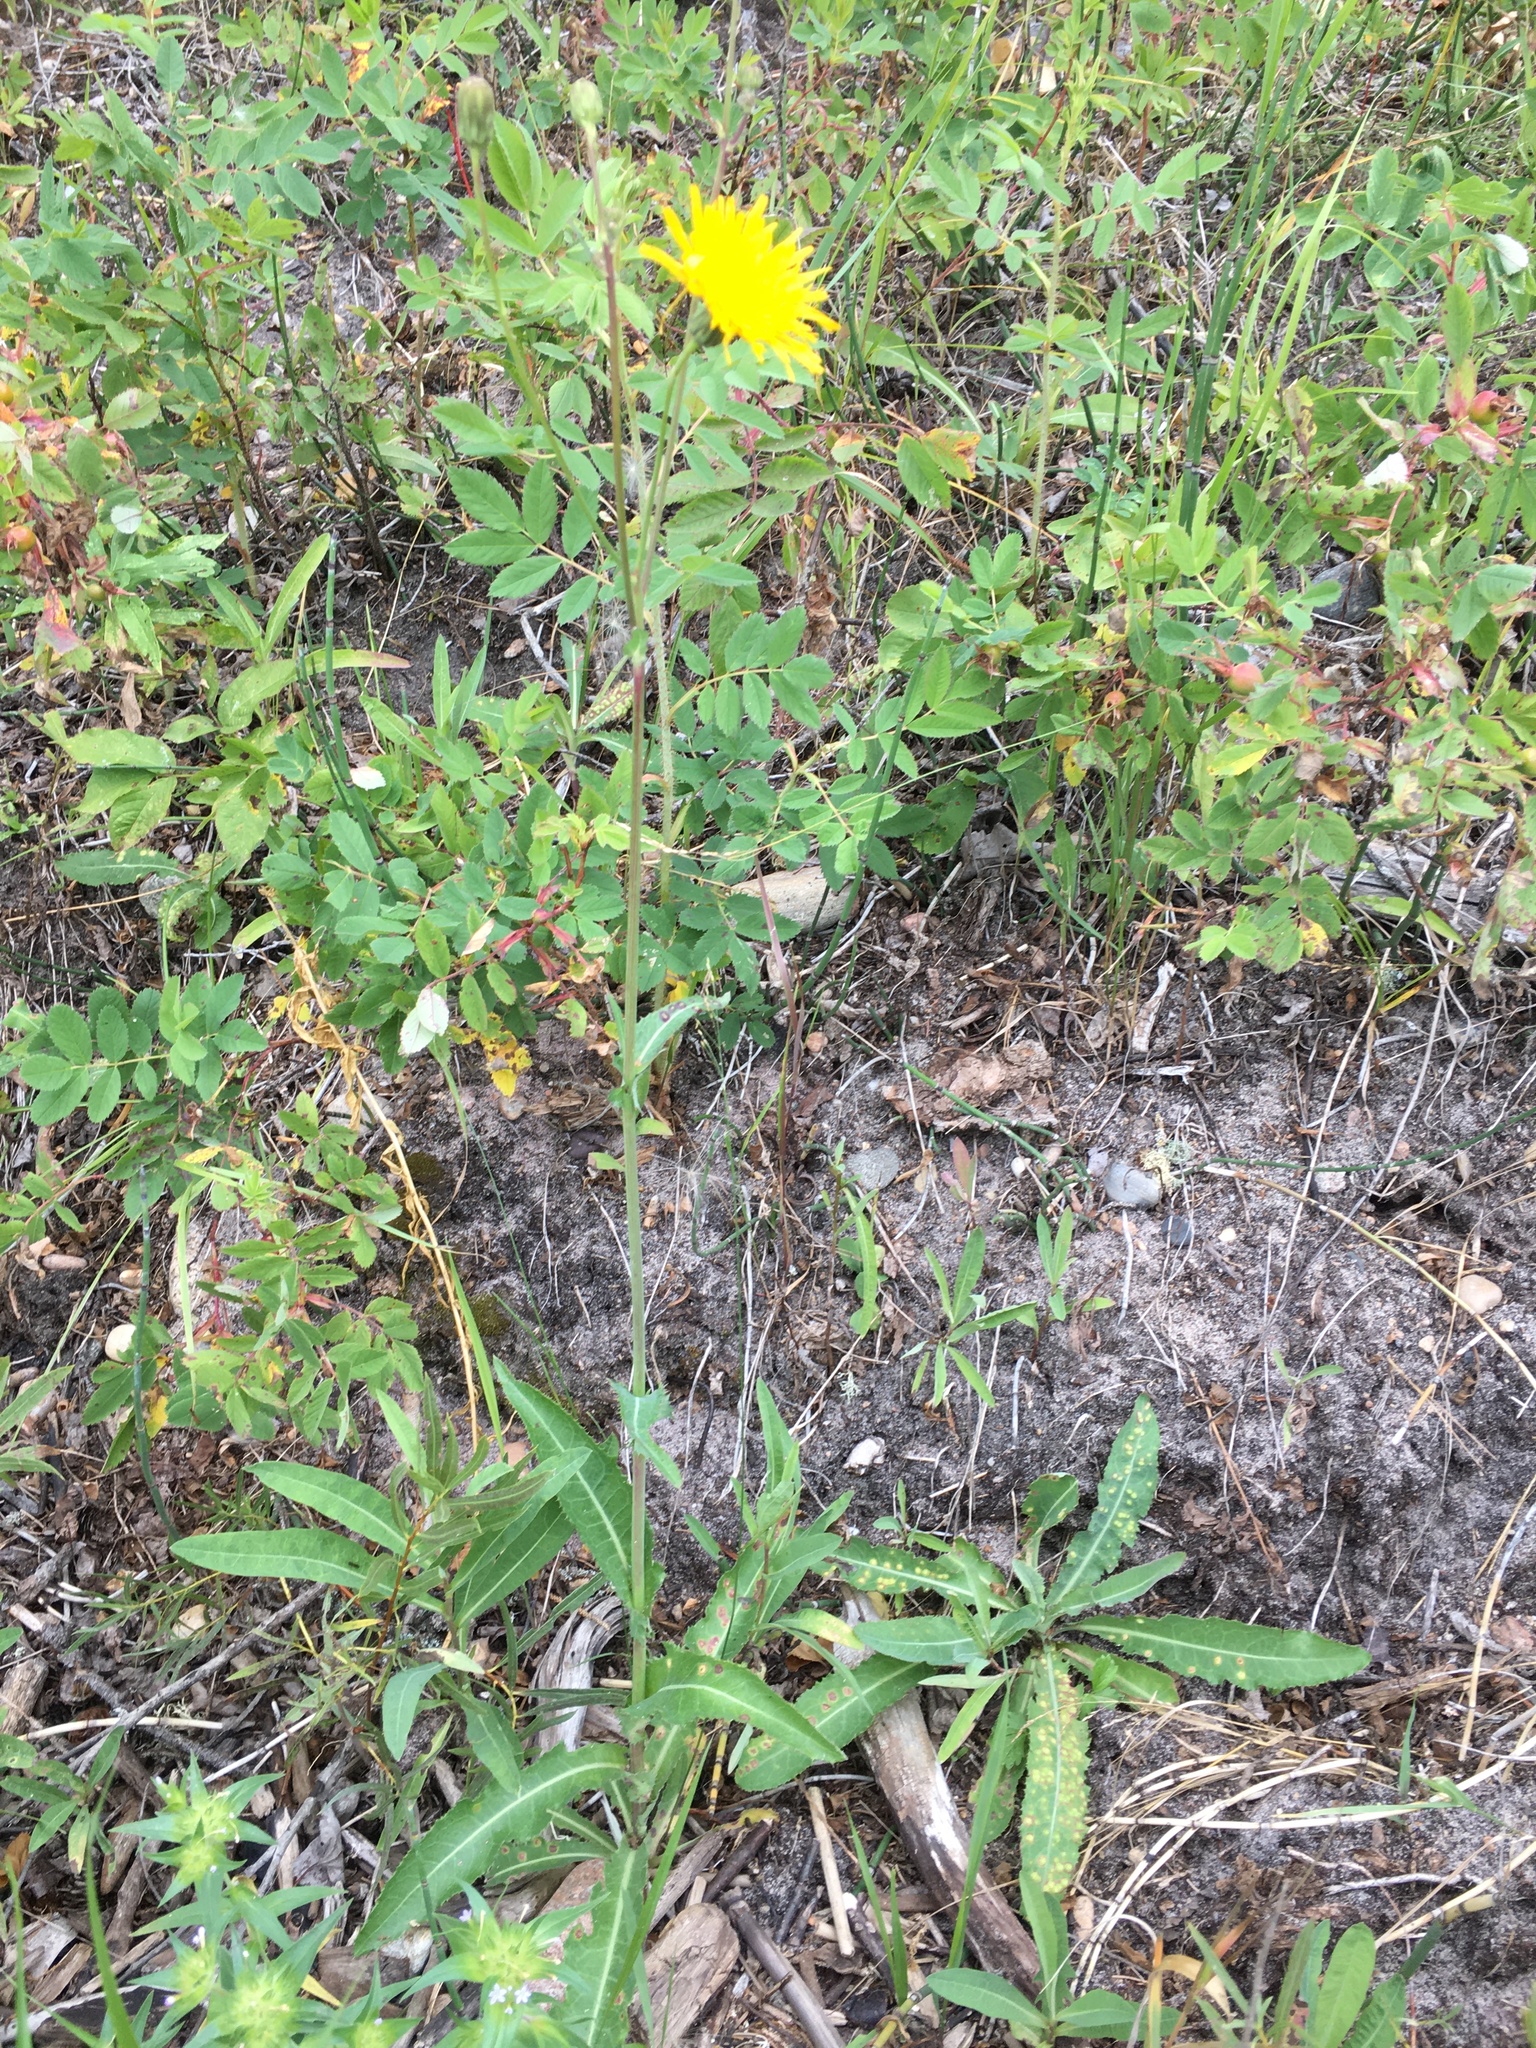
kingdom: Plantae
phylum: Tracheophyta
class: Magnoliopsida
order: Asterales
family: Asteraceae
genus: Sonchus
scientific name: Sonchus arvensis
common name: Perennial sow-thistle
